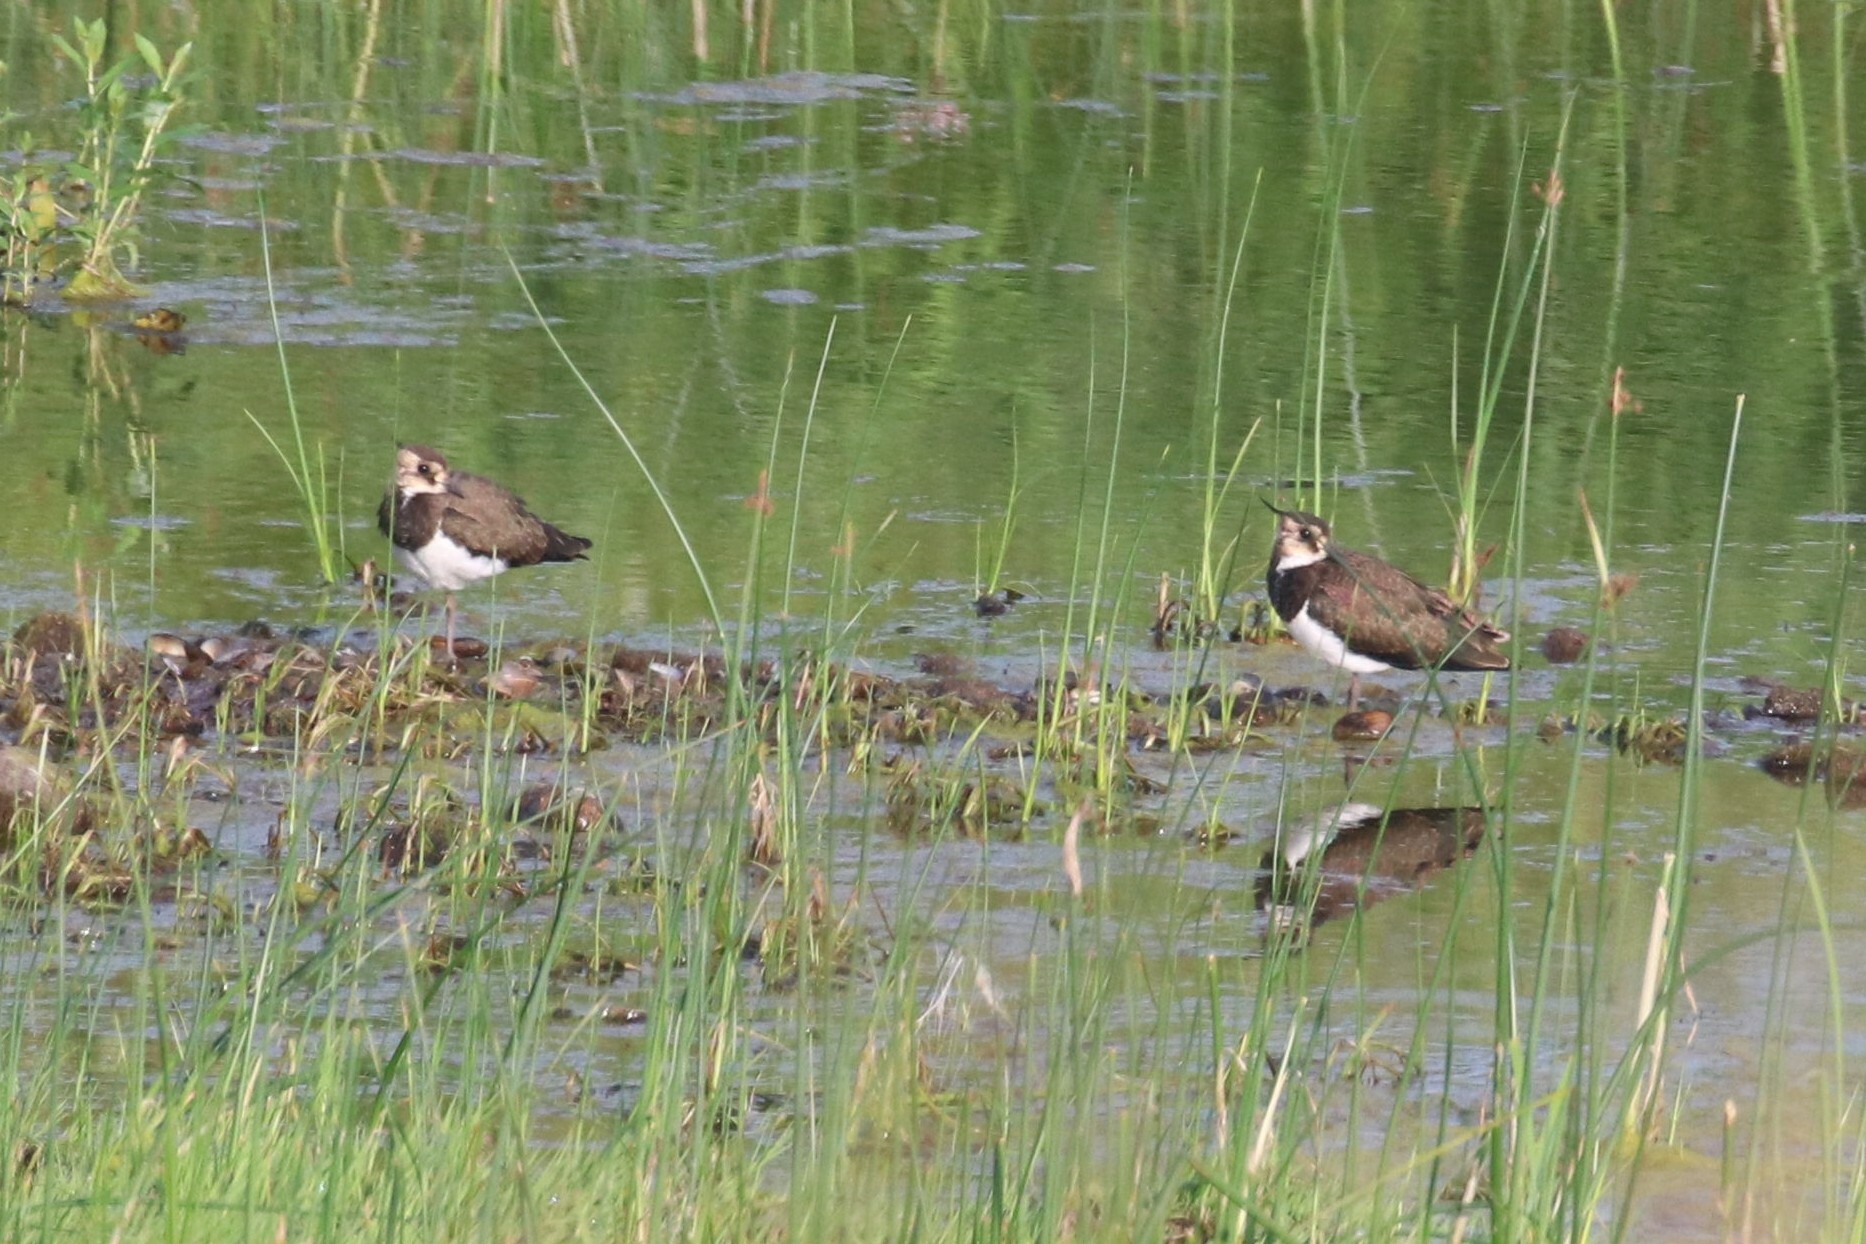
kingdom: Animalia
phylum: Chordata
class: Aves
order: Charadriiformes
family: Charadriidae
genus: Vanellus
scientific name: Vanellus vanellus
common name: Northern lapwing
